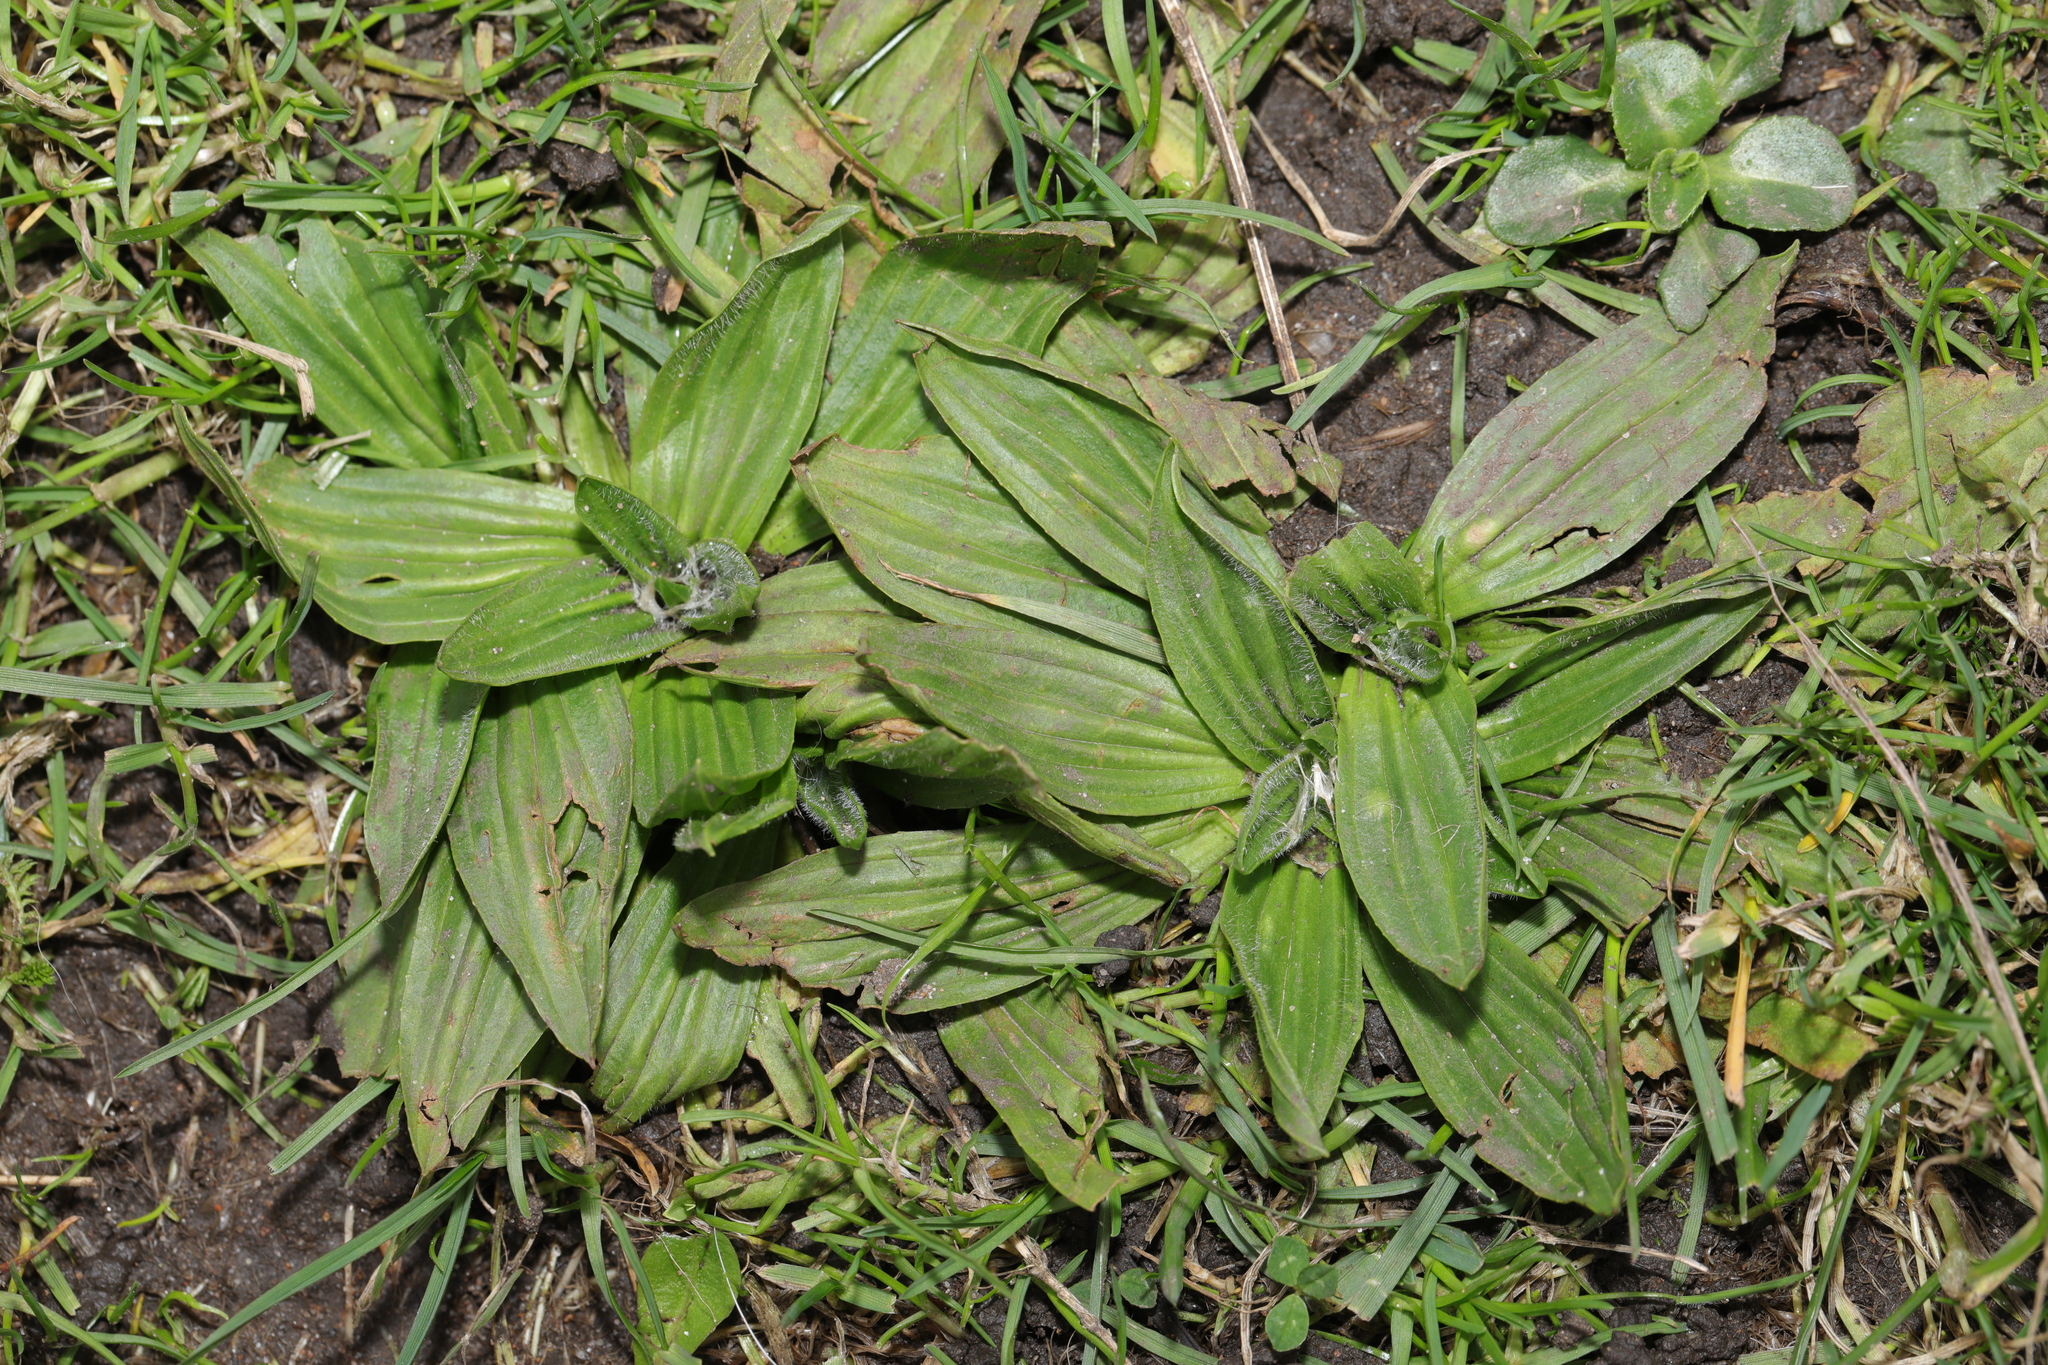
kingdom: Plantae
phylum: Tracheophyta
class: Magnoliopsida
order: Lamiales
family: Plantaginaceae
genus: Plantago
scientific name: Plantago lanceolata
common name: Ribwort plantain
